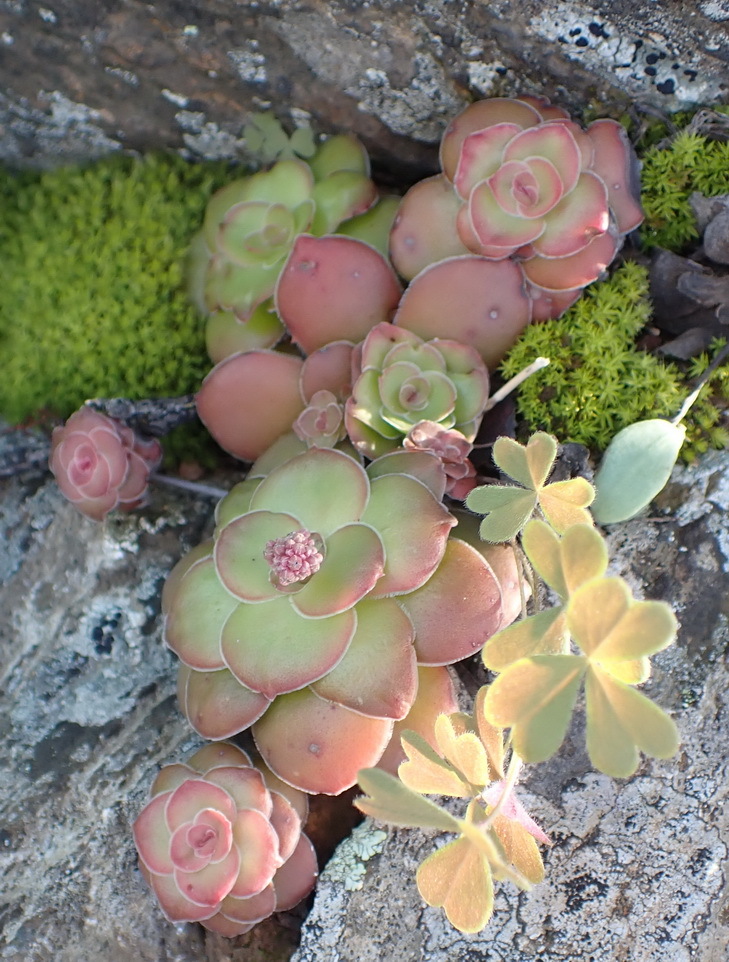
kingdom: Plantae
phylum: Tracheophyta
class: Magnoliopsida
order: Saxifragales
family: Crassulaceae
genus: Crassula
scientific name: Crassula orbicularis
